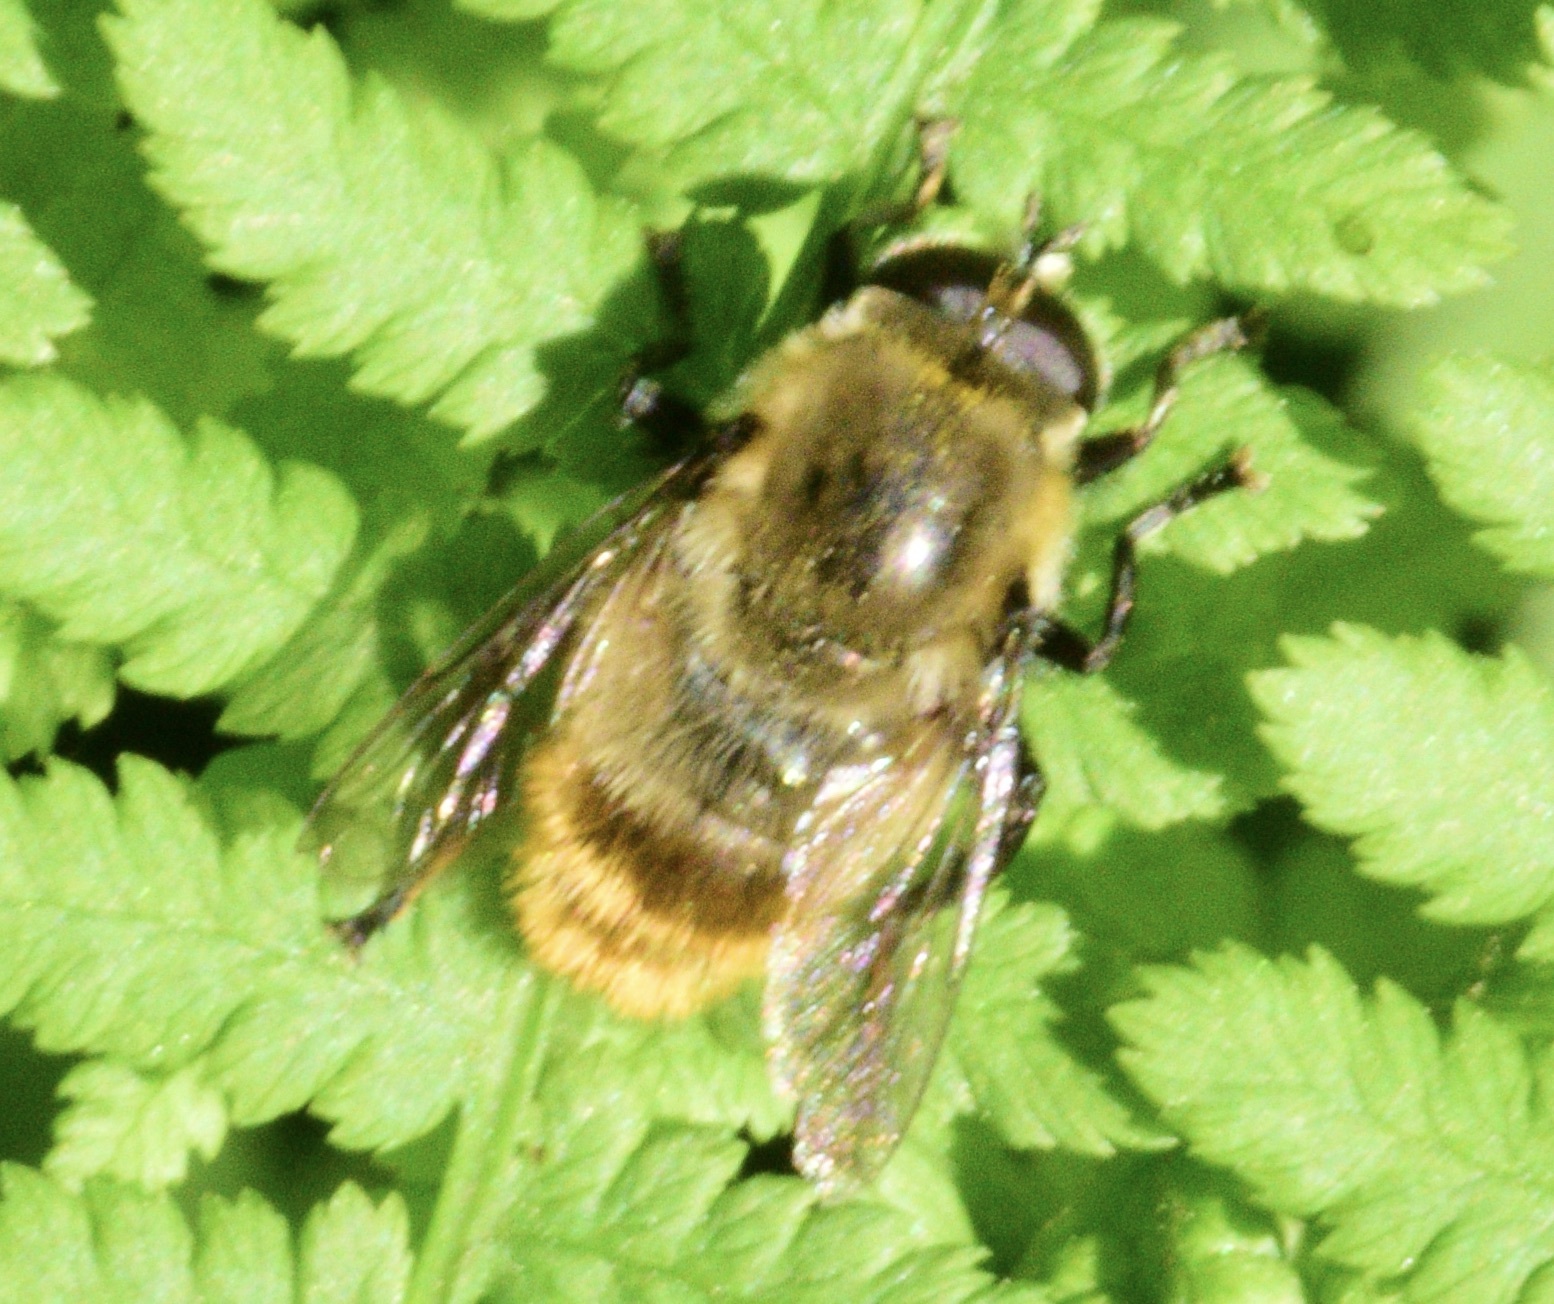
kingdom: Animalia
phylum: Arthropoda
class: Insecta
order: Diptera
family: Syrphidae
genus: Merodon
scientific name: Merodon equestris
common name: Greater bulb-fly
